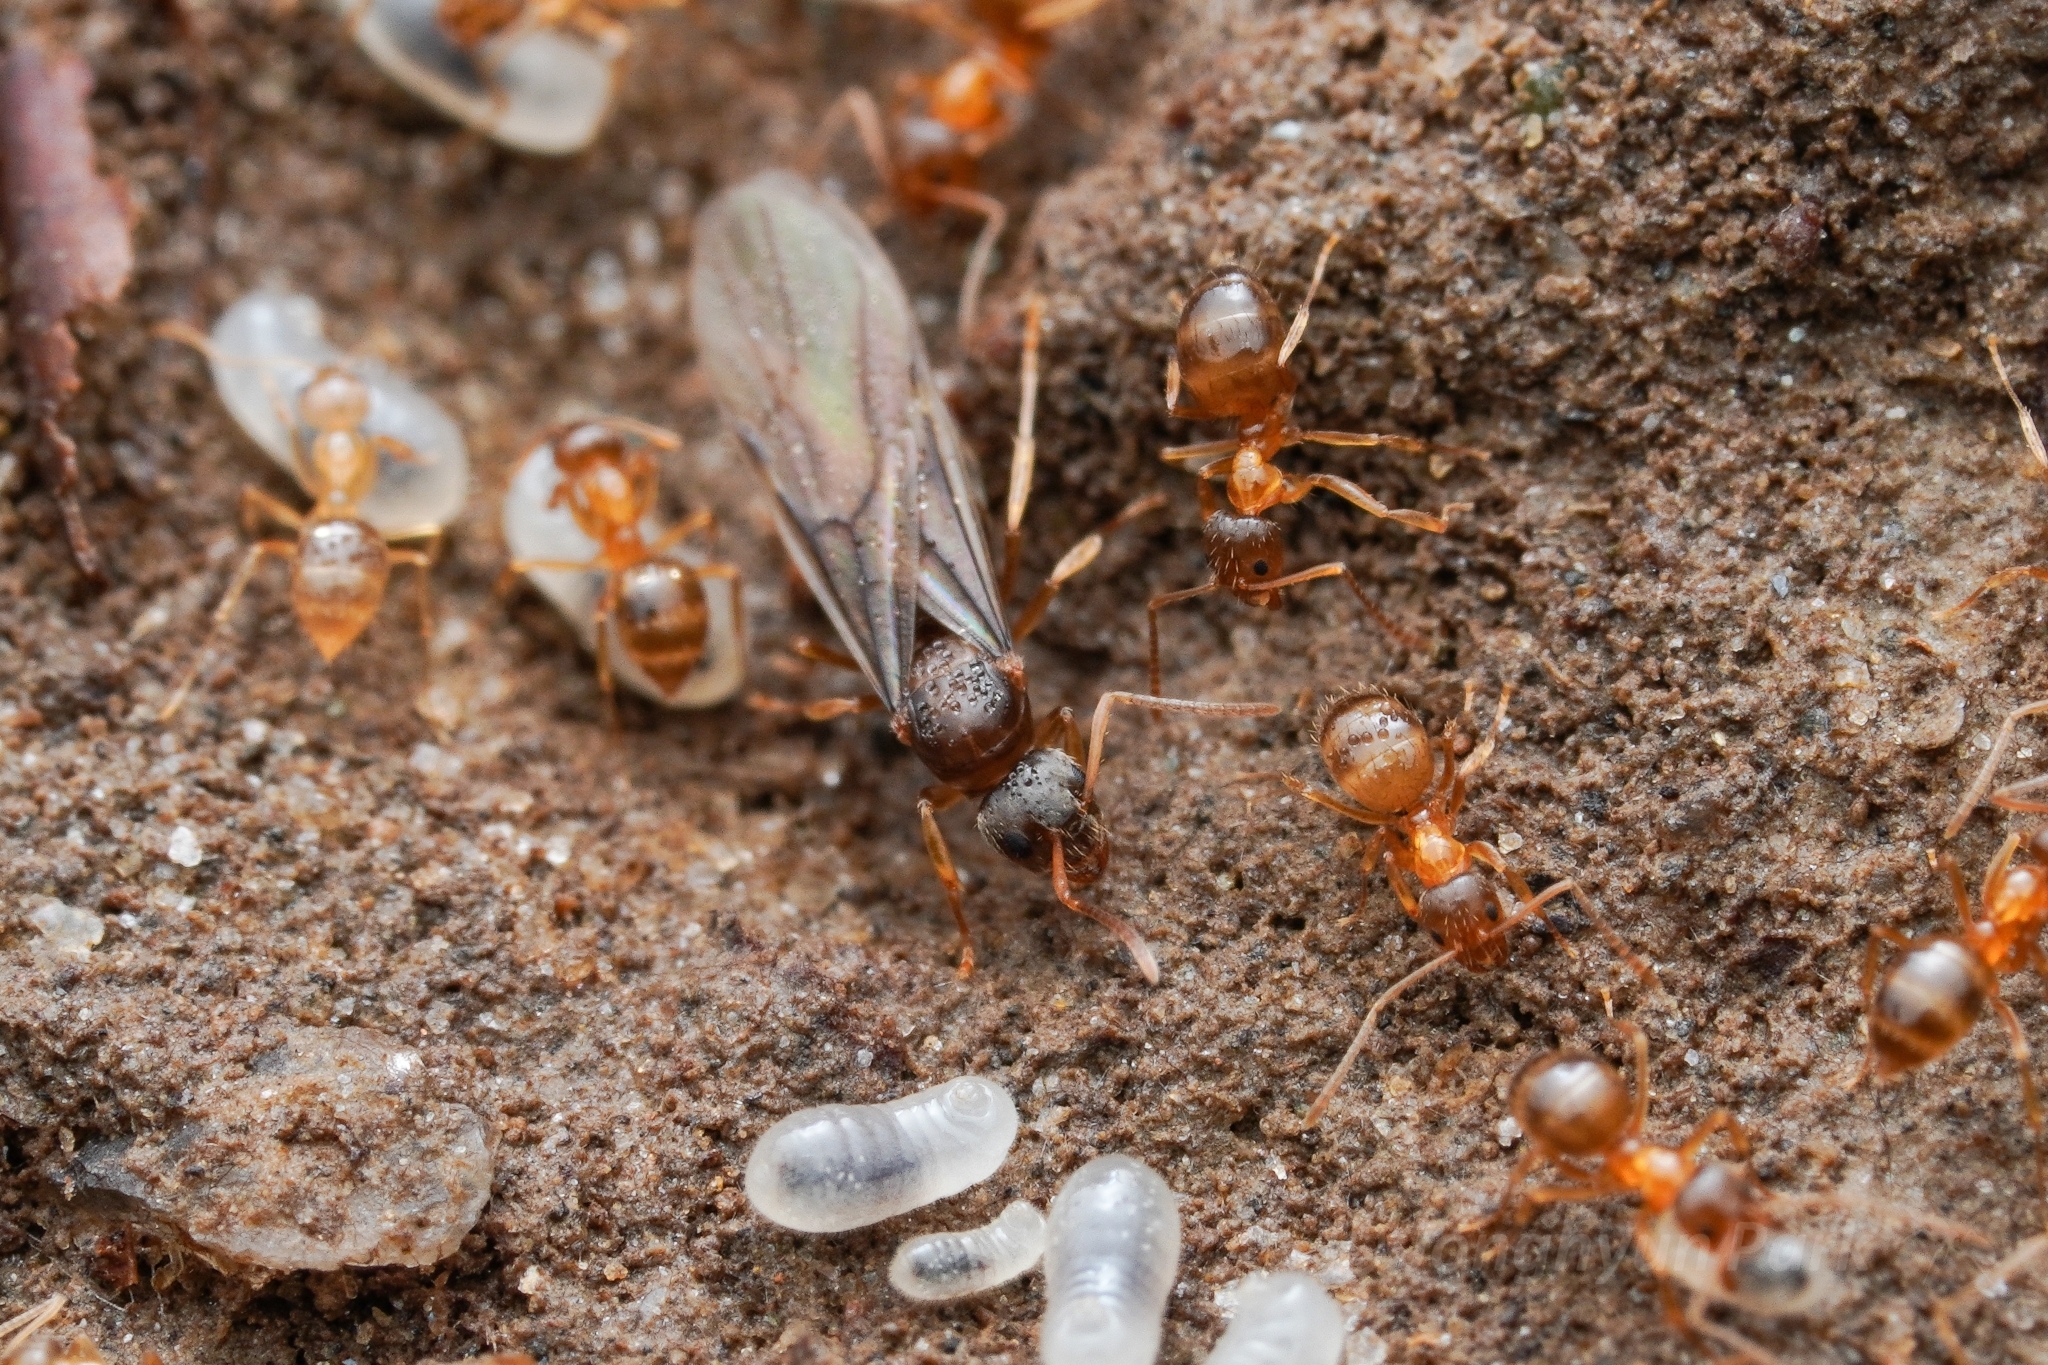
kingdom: Animalia
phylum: Arthropoda
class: Insecta
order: Hymenoptera
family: Formicidae
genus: Paratrechina
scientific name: Paratrechina flavipes
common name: Eastern asian formicine ant
